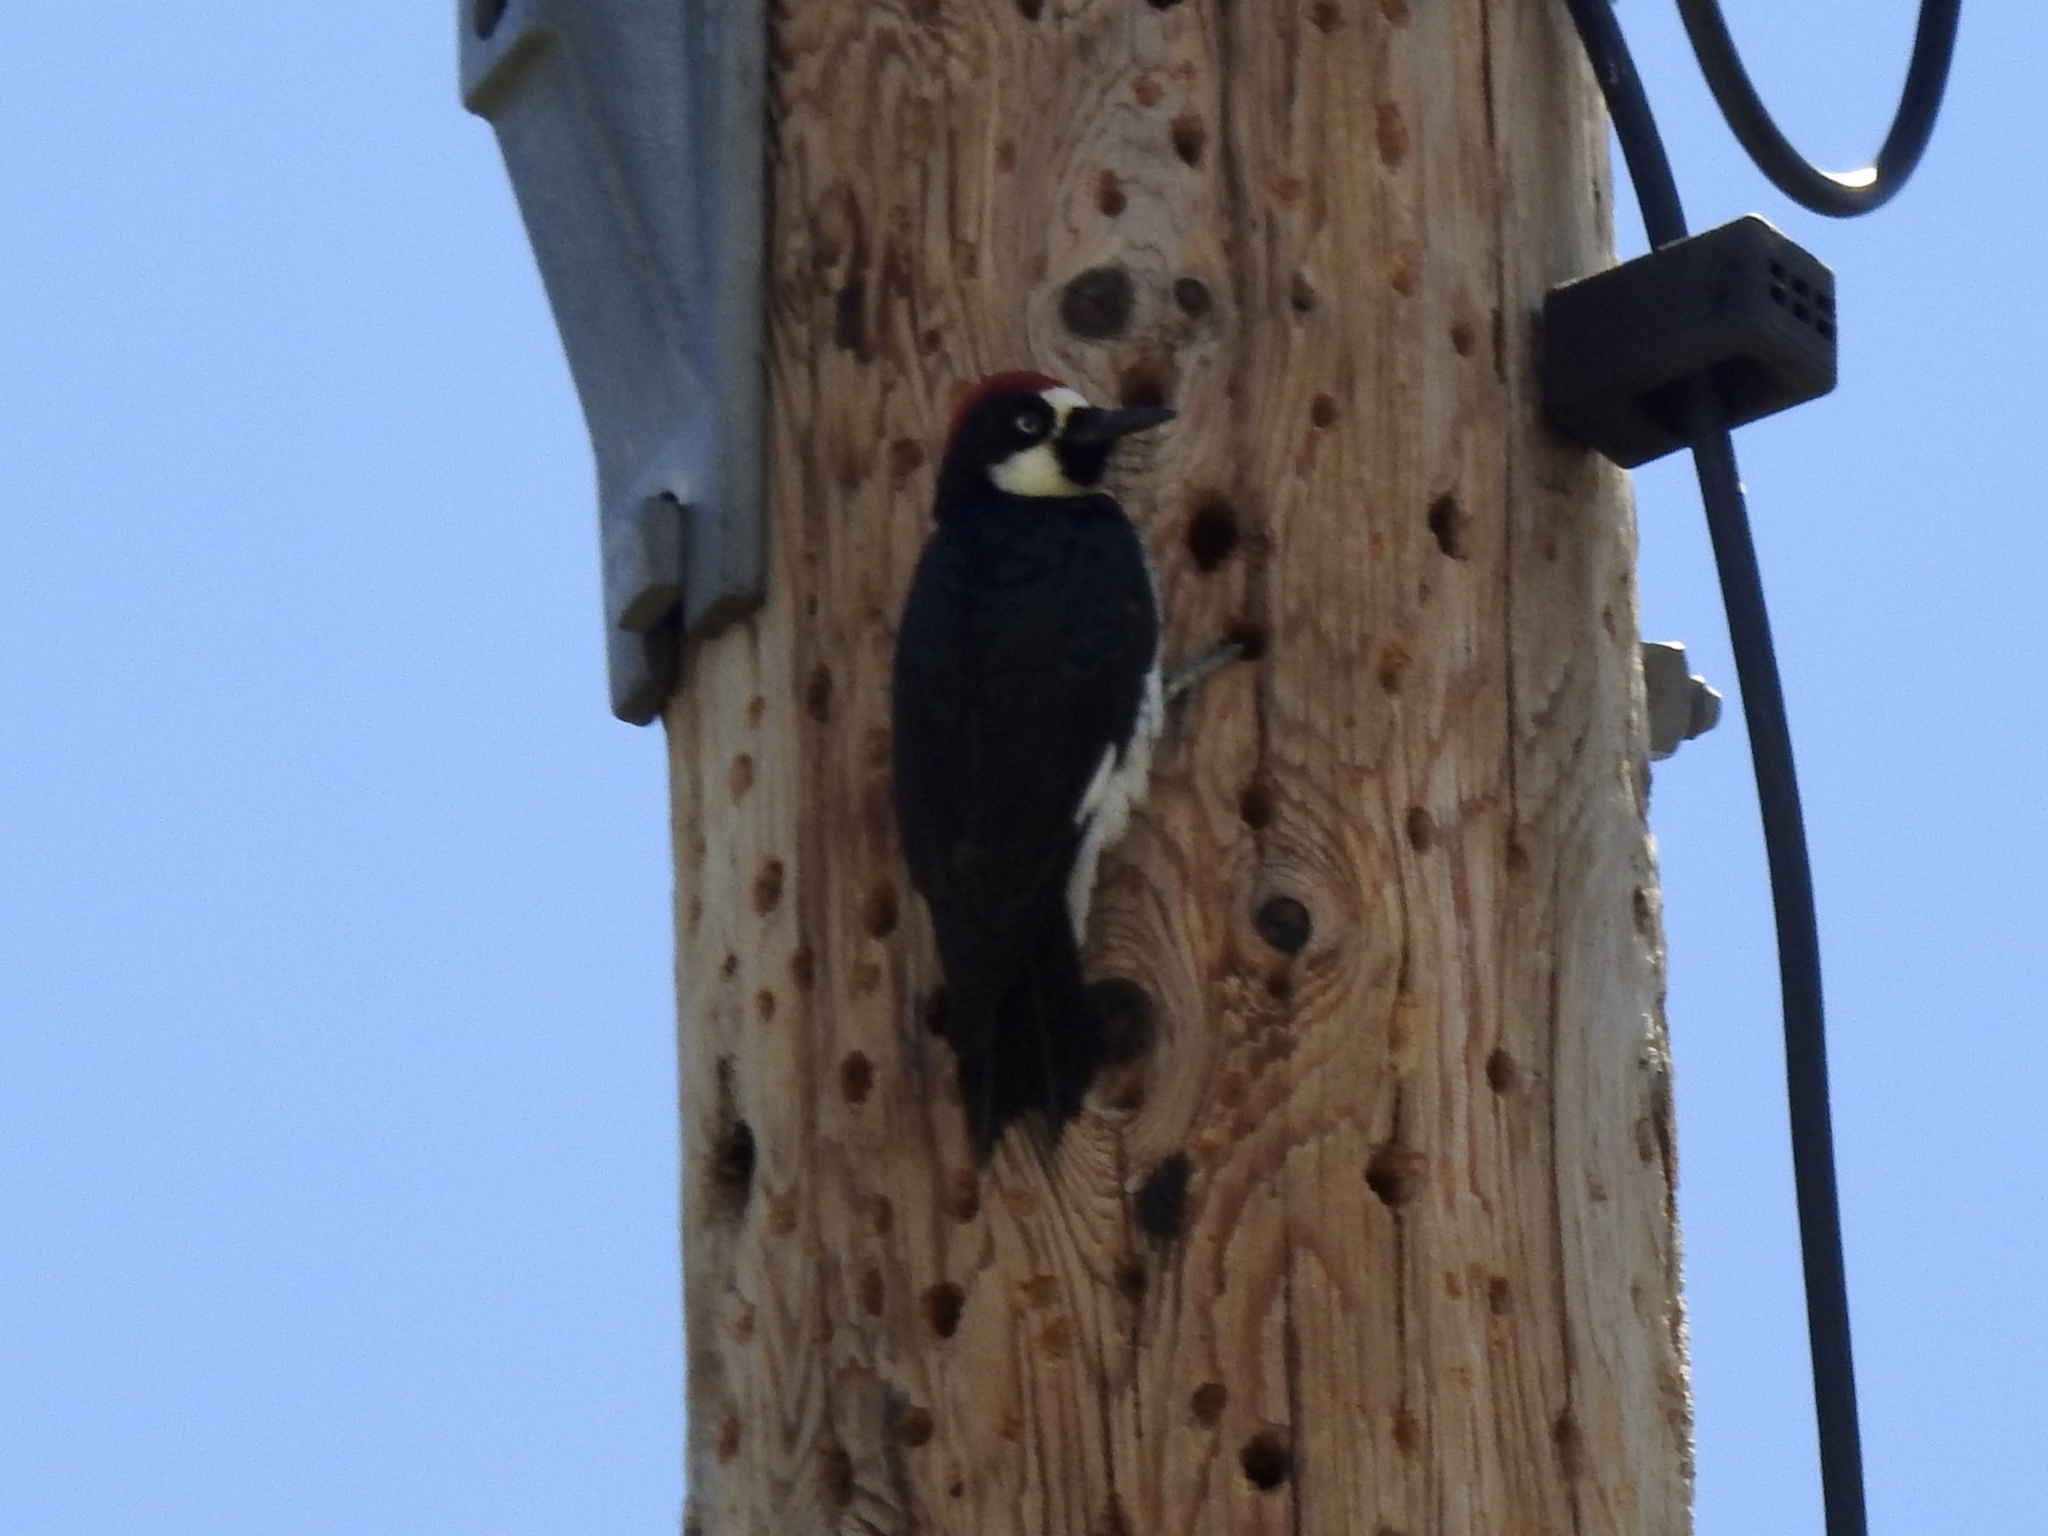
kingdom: Animalia
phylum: Chordata
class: Aves
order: Piciformes
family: Picidae
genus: Melanerpes
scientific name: Melanerpes formicivorus
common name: Acorn woodpecker
